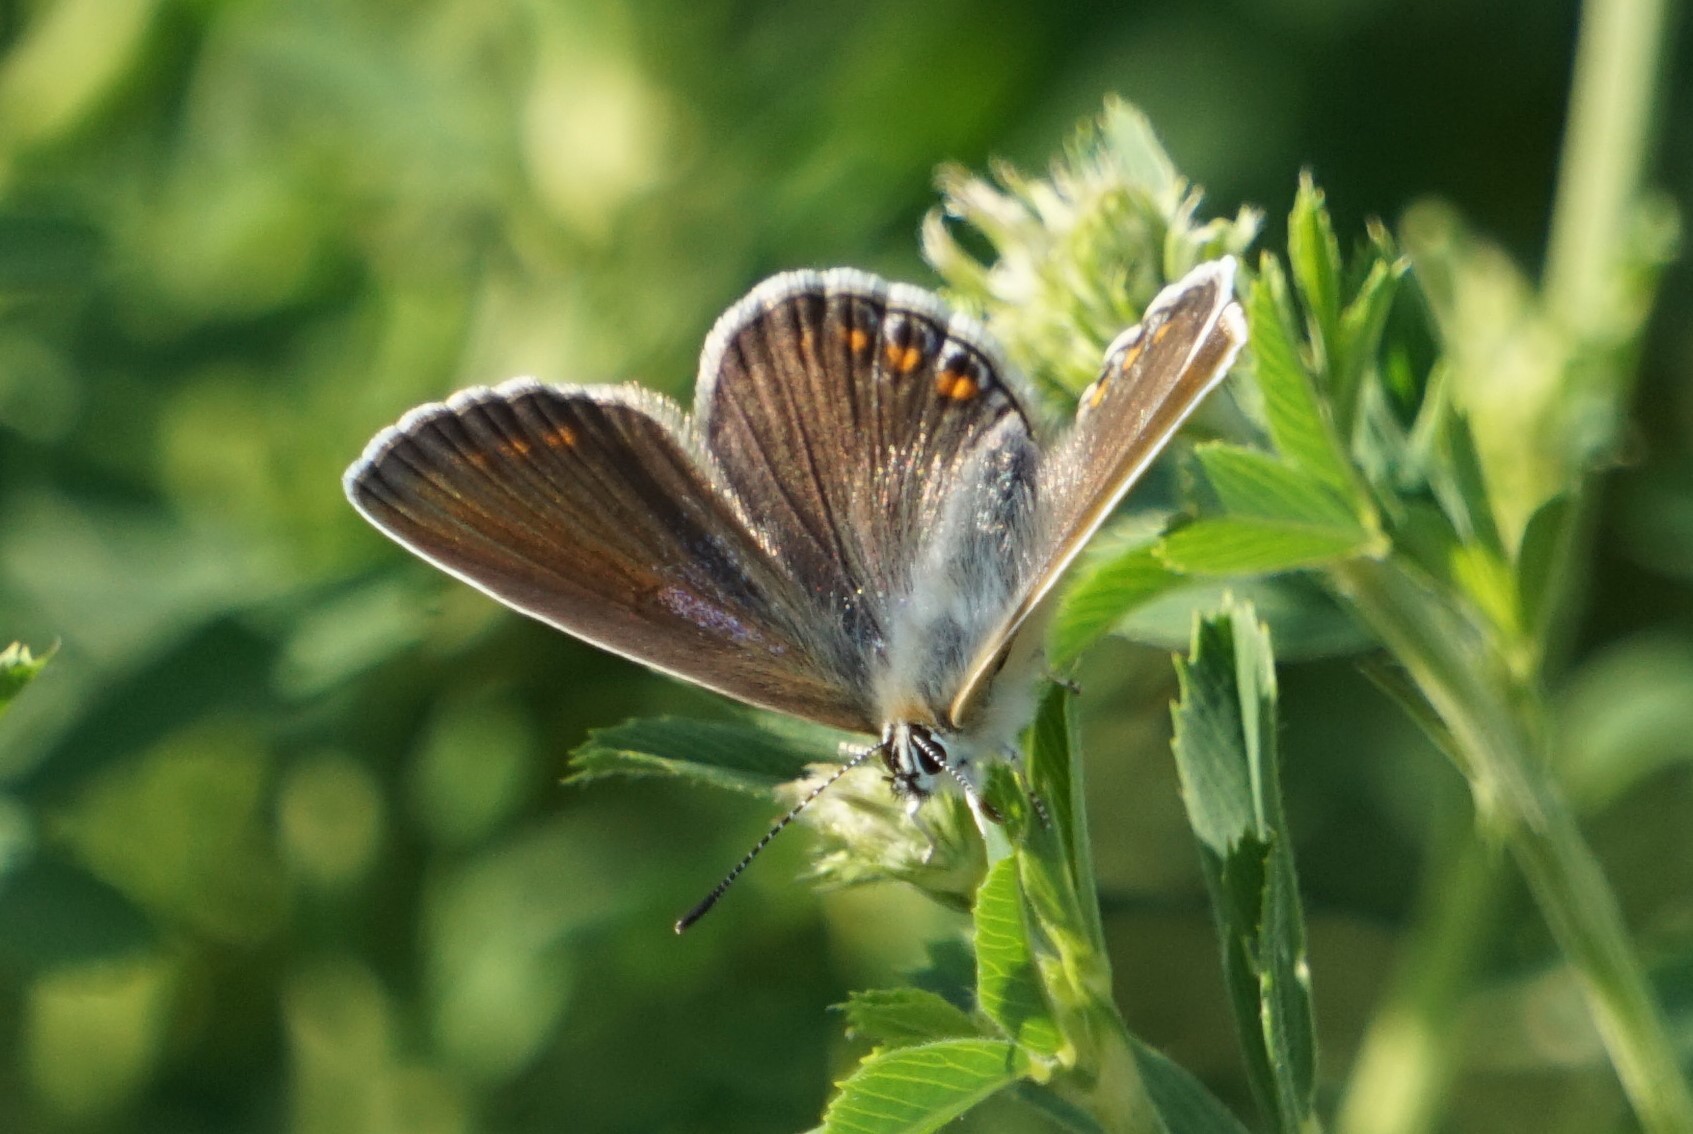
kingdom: Animalia
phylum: Arthropoda
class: Insecta
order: Lepidoptera
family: Lycaenidae
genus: Polyommatus
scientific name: Polyommatus icarus
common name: Common blue
